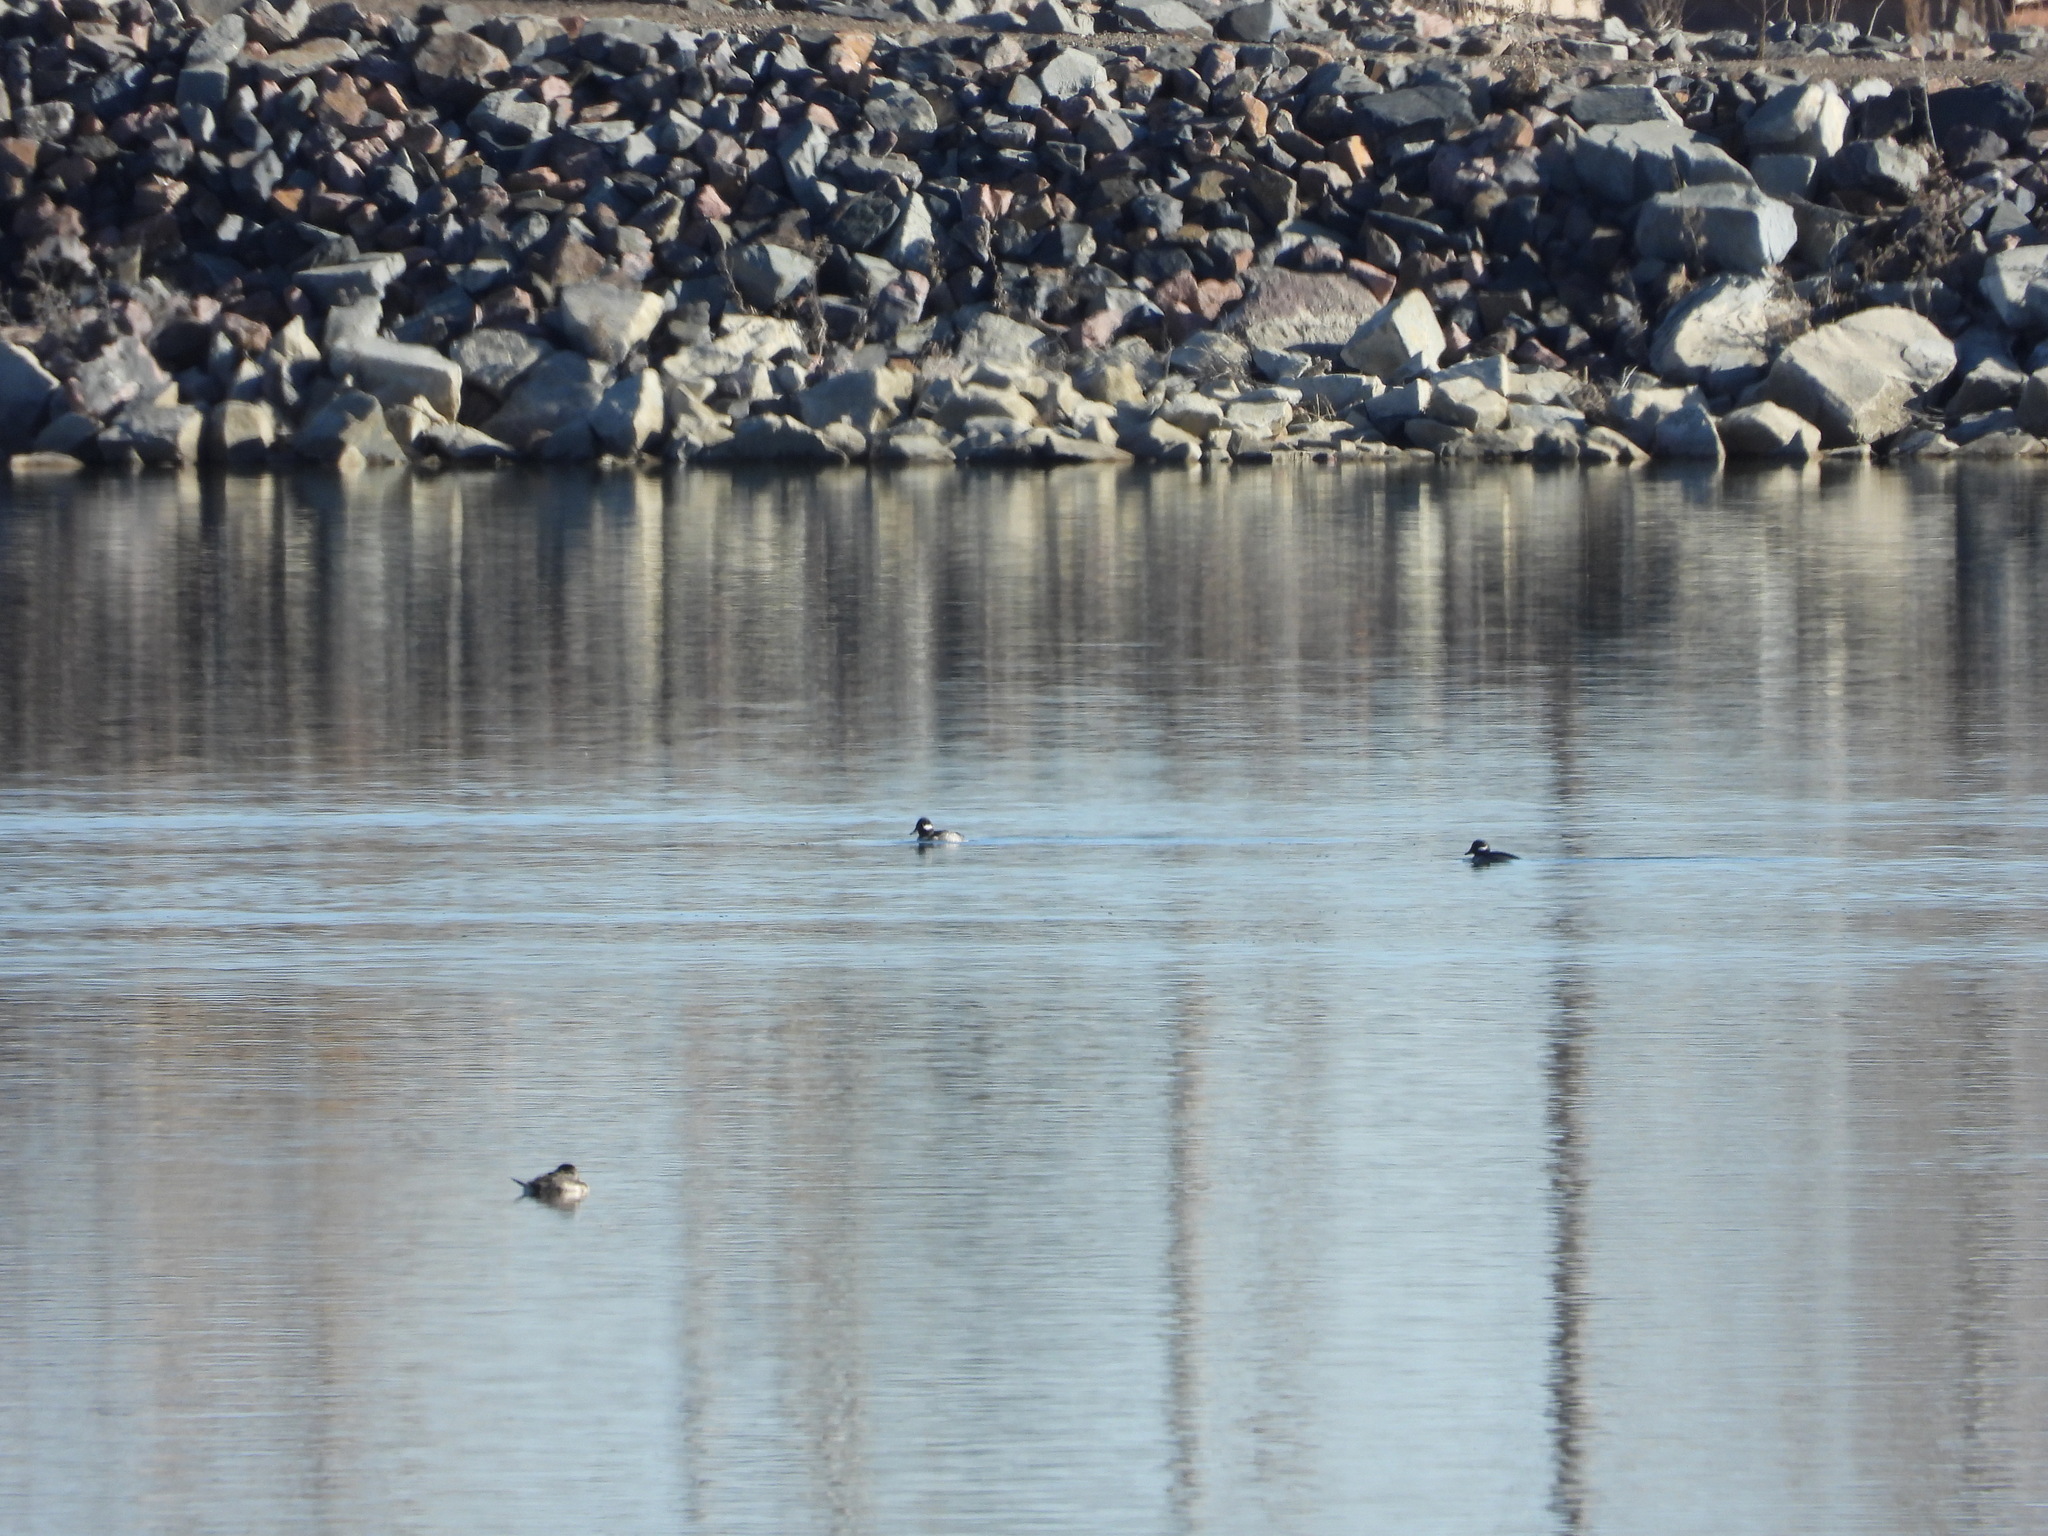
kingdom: Animalia
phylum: Chordata
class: Aves
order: Anseriformes
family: Anatidae
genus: Bucephala
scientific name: Bucephala albeola
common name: Bufflehead
